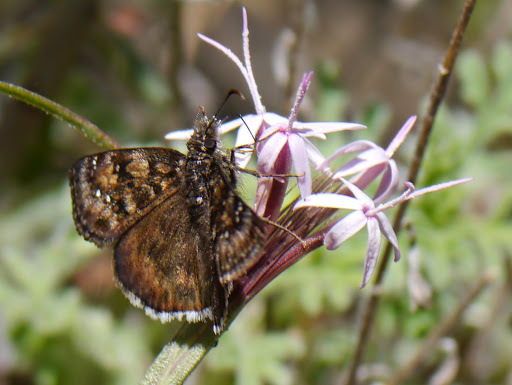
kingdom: Animalia
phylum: Arthropoda
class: Insecta
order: Lepidoptera
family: Hesperiidae
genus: Erynnis
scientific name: Erynnis tristis
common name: Mournful duskywing
